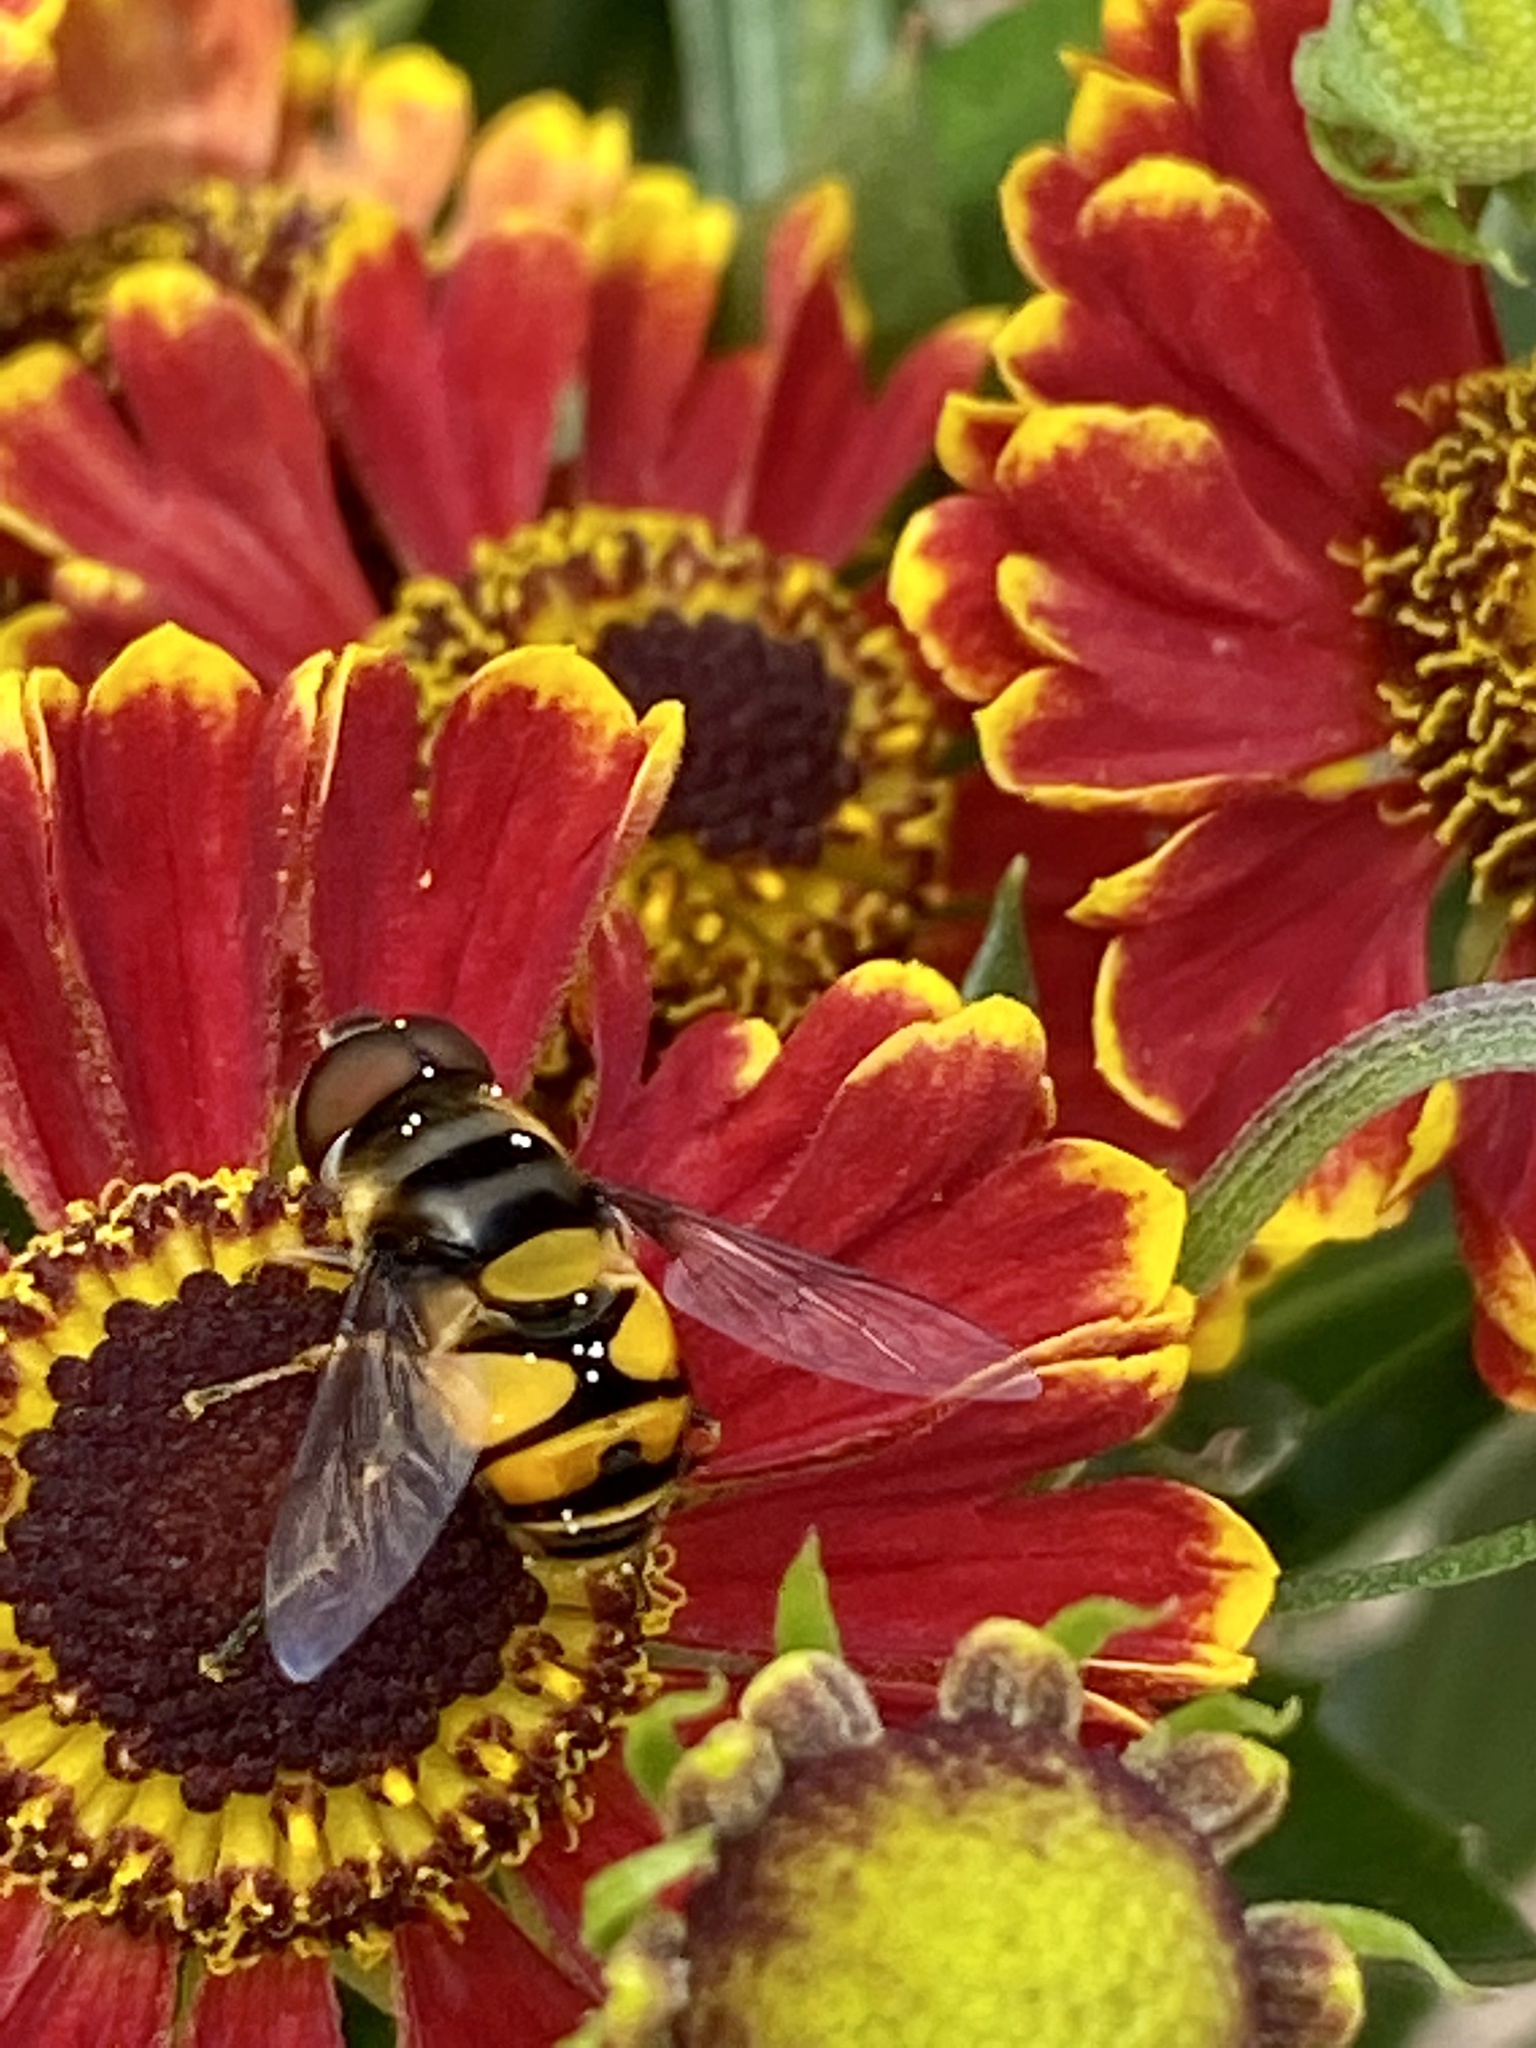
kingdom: Animalia
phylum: Arthropoda
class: Insecta
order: Diptera
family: Syrphidae
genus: Eristalis
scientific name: Eristalis transversa
